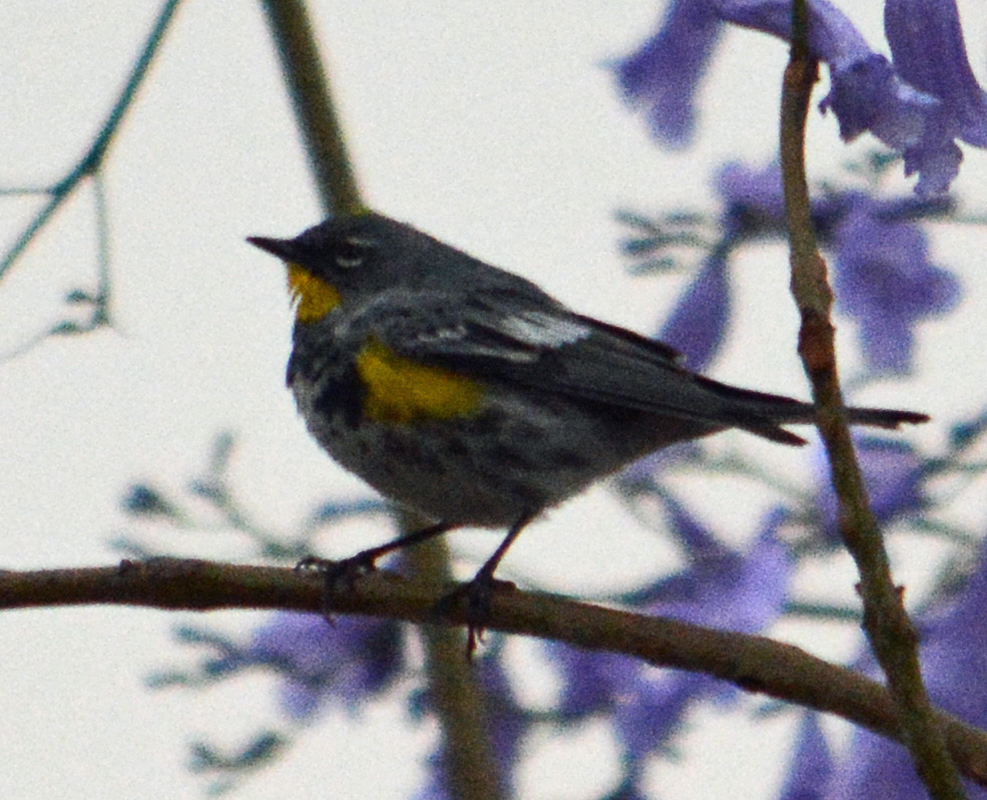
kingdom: Animalia
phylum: Chordata
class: Aves
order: Passeriformes
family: Parulidae
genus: Setophaga
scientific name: Setophaga auduboni
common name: Audubon's warbler
